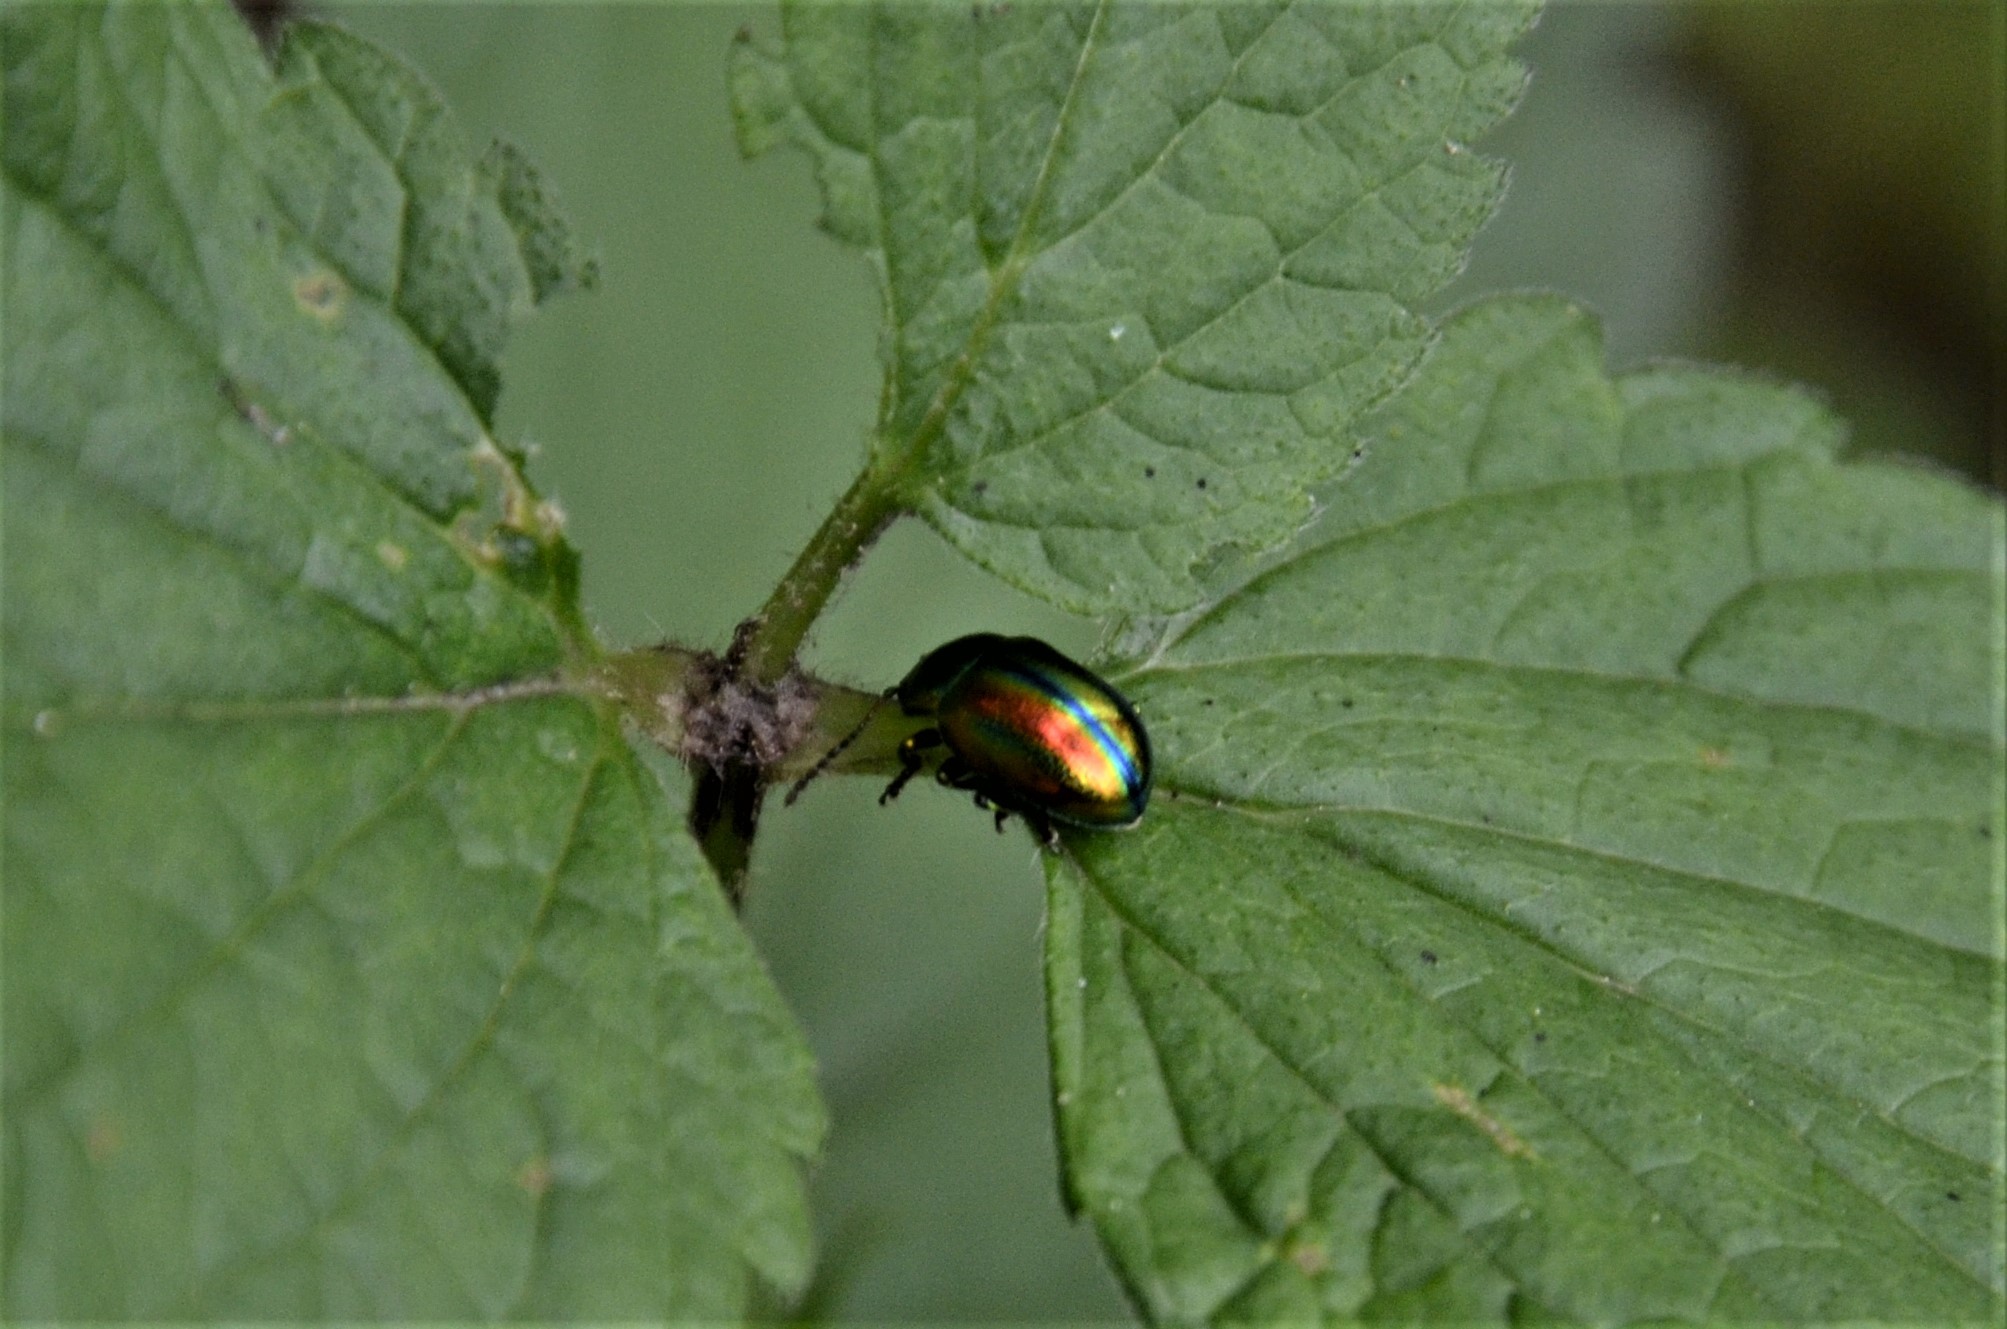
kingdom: Animalia
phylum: Arthropoda
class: Insecta
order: Coleoptera
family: Chrysomelidae
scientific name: Chrysomelidae
